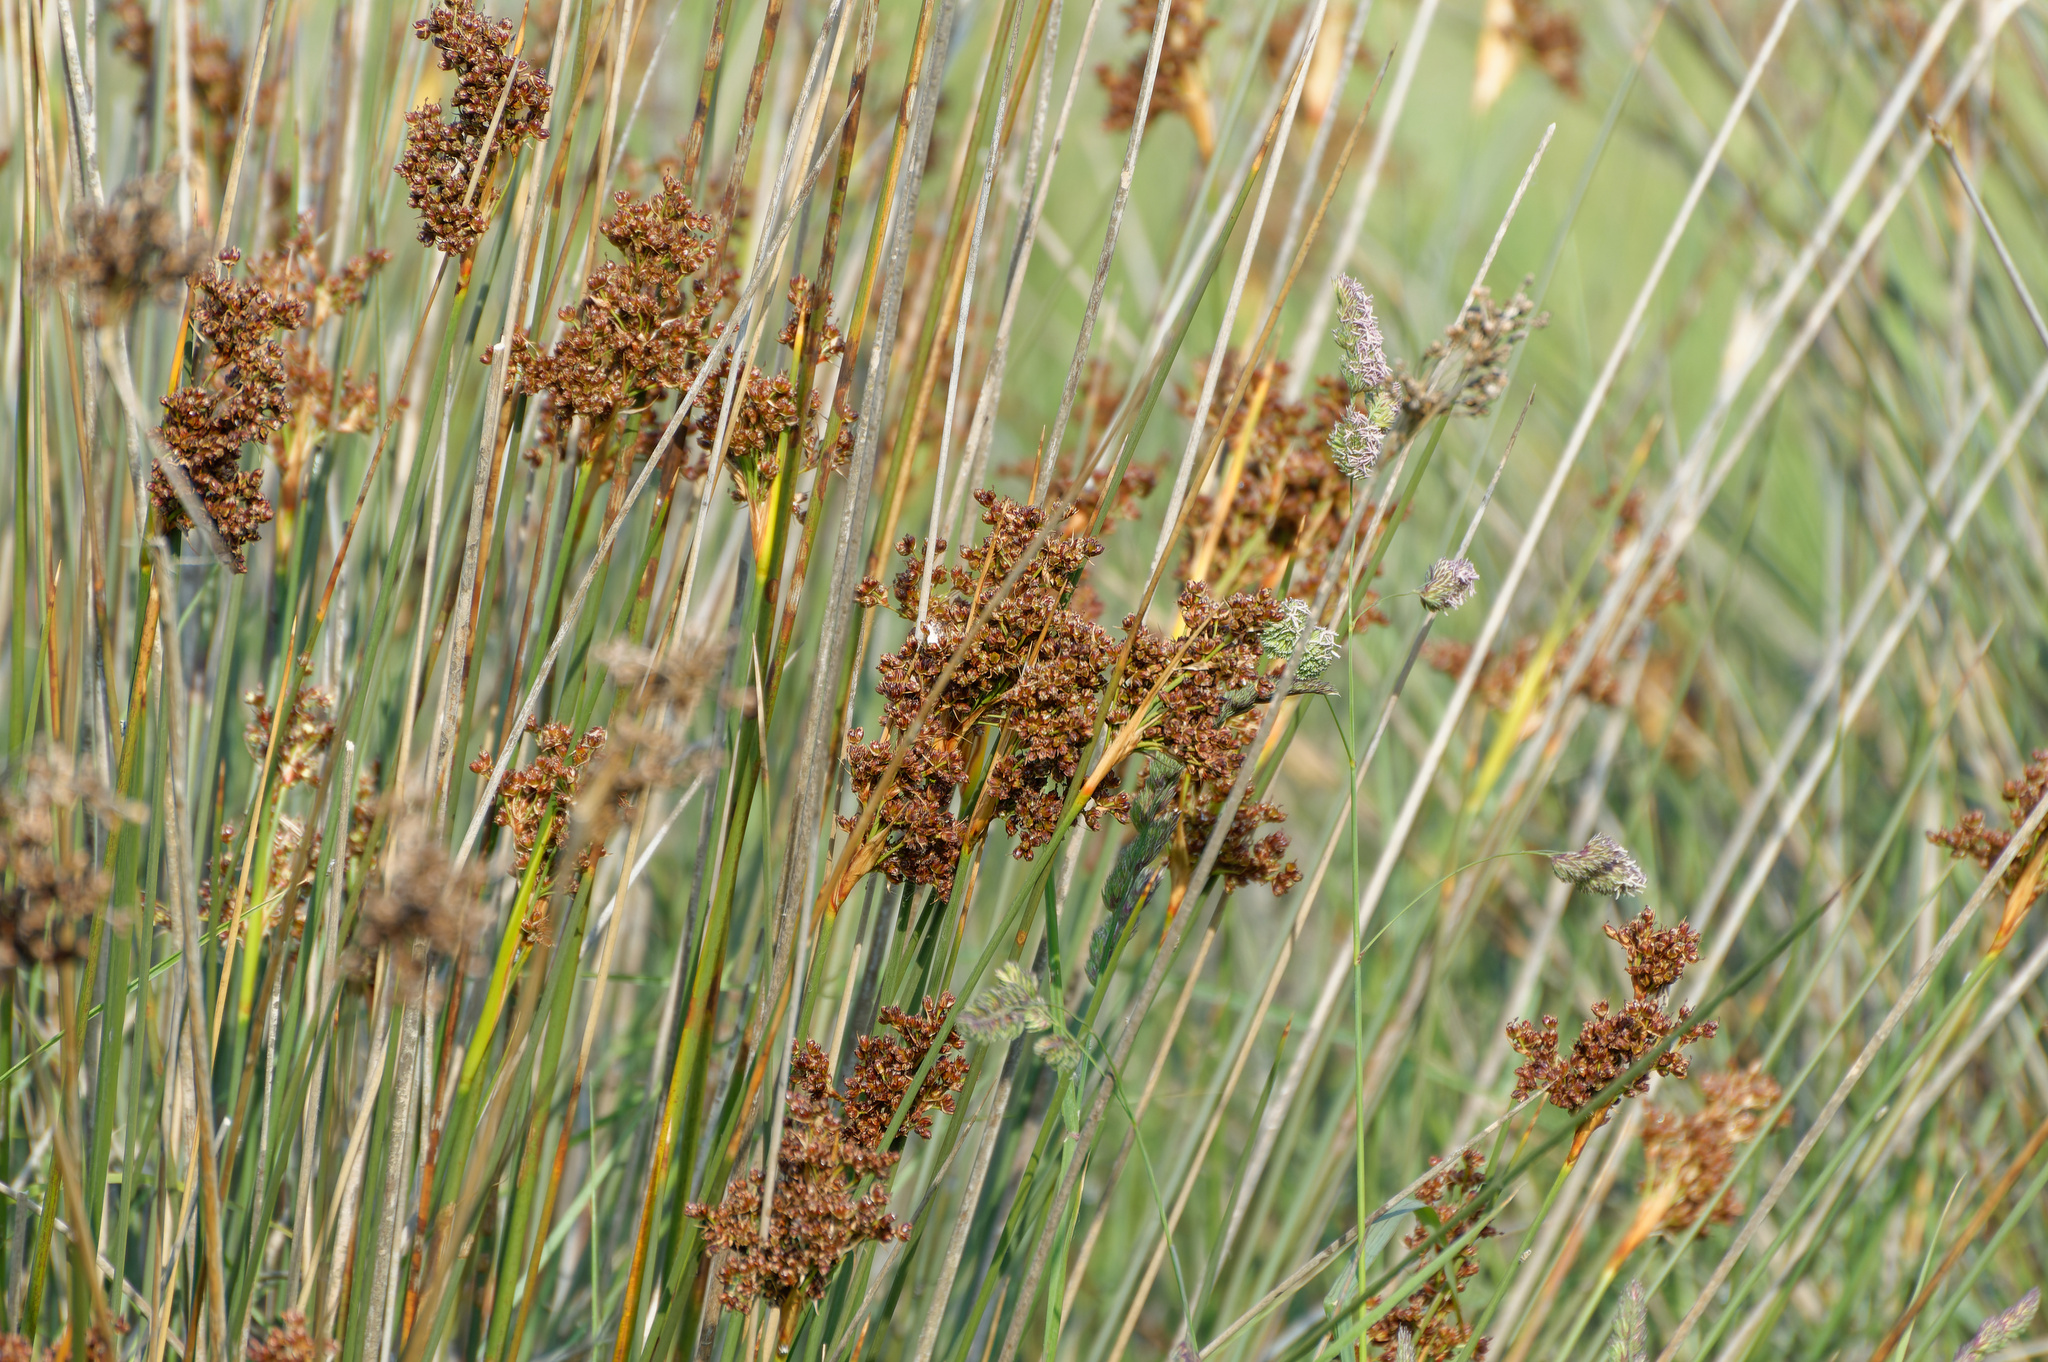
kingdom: Plantae
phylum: Tracheophyta
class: Liliopsida
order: Poales
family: Juncaceae
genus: Juncus
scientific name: Juncus acutus
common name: Sharp rush
